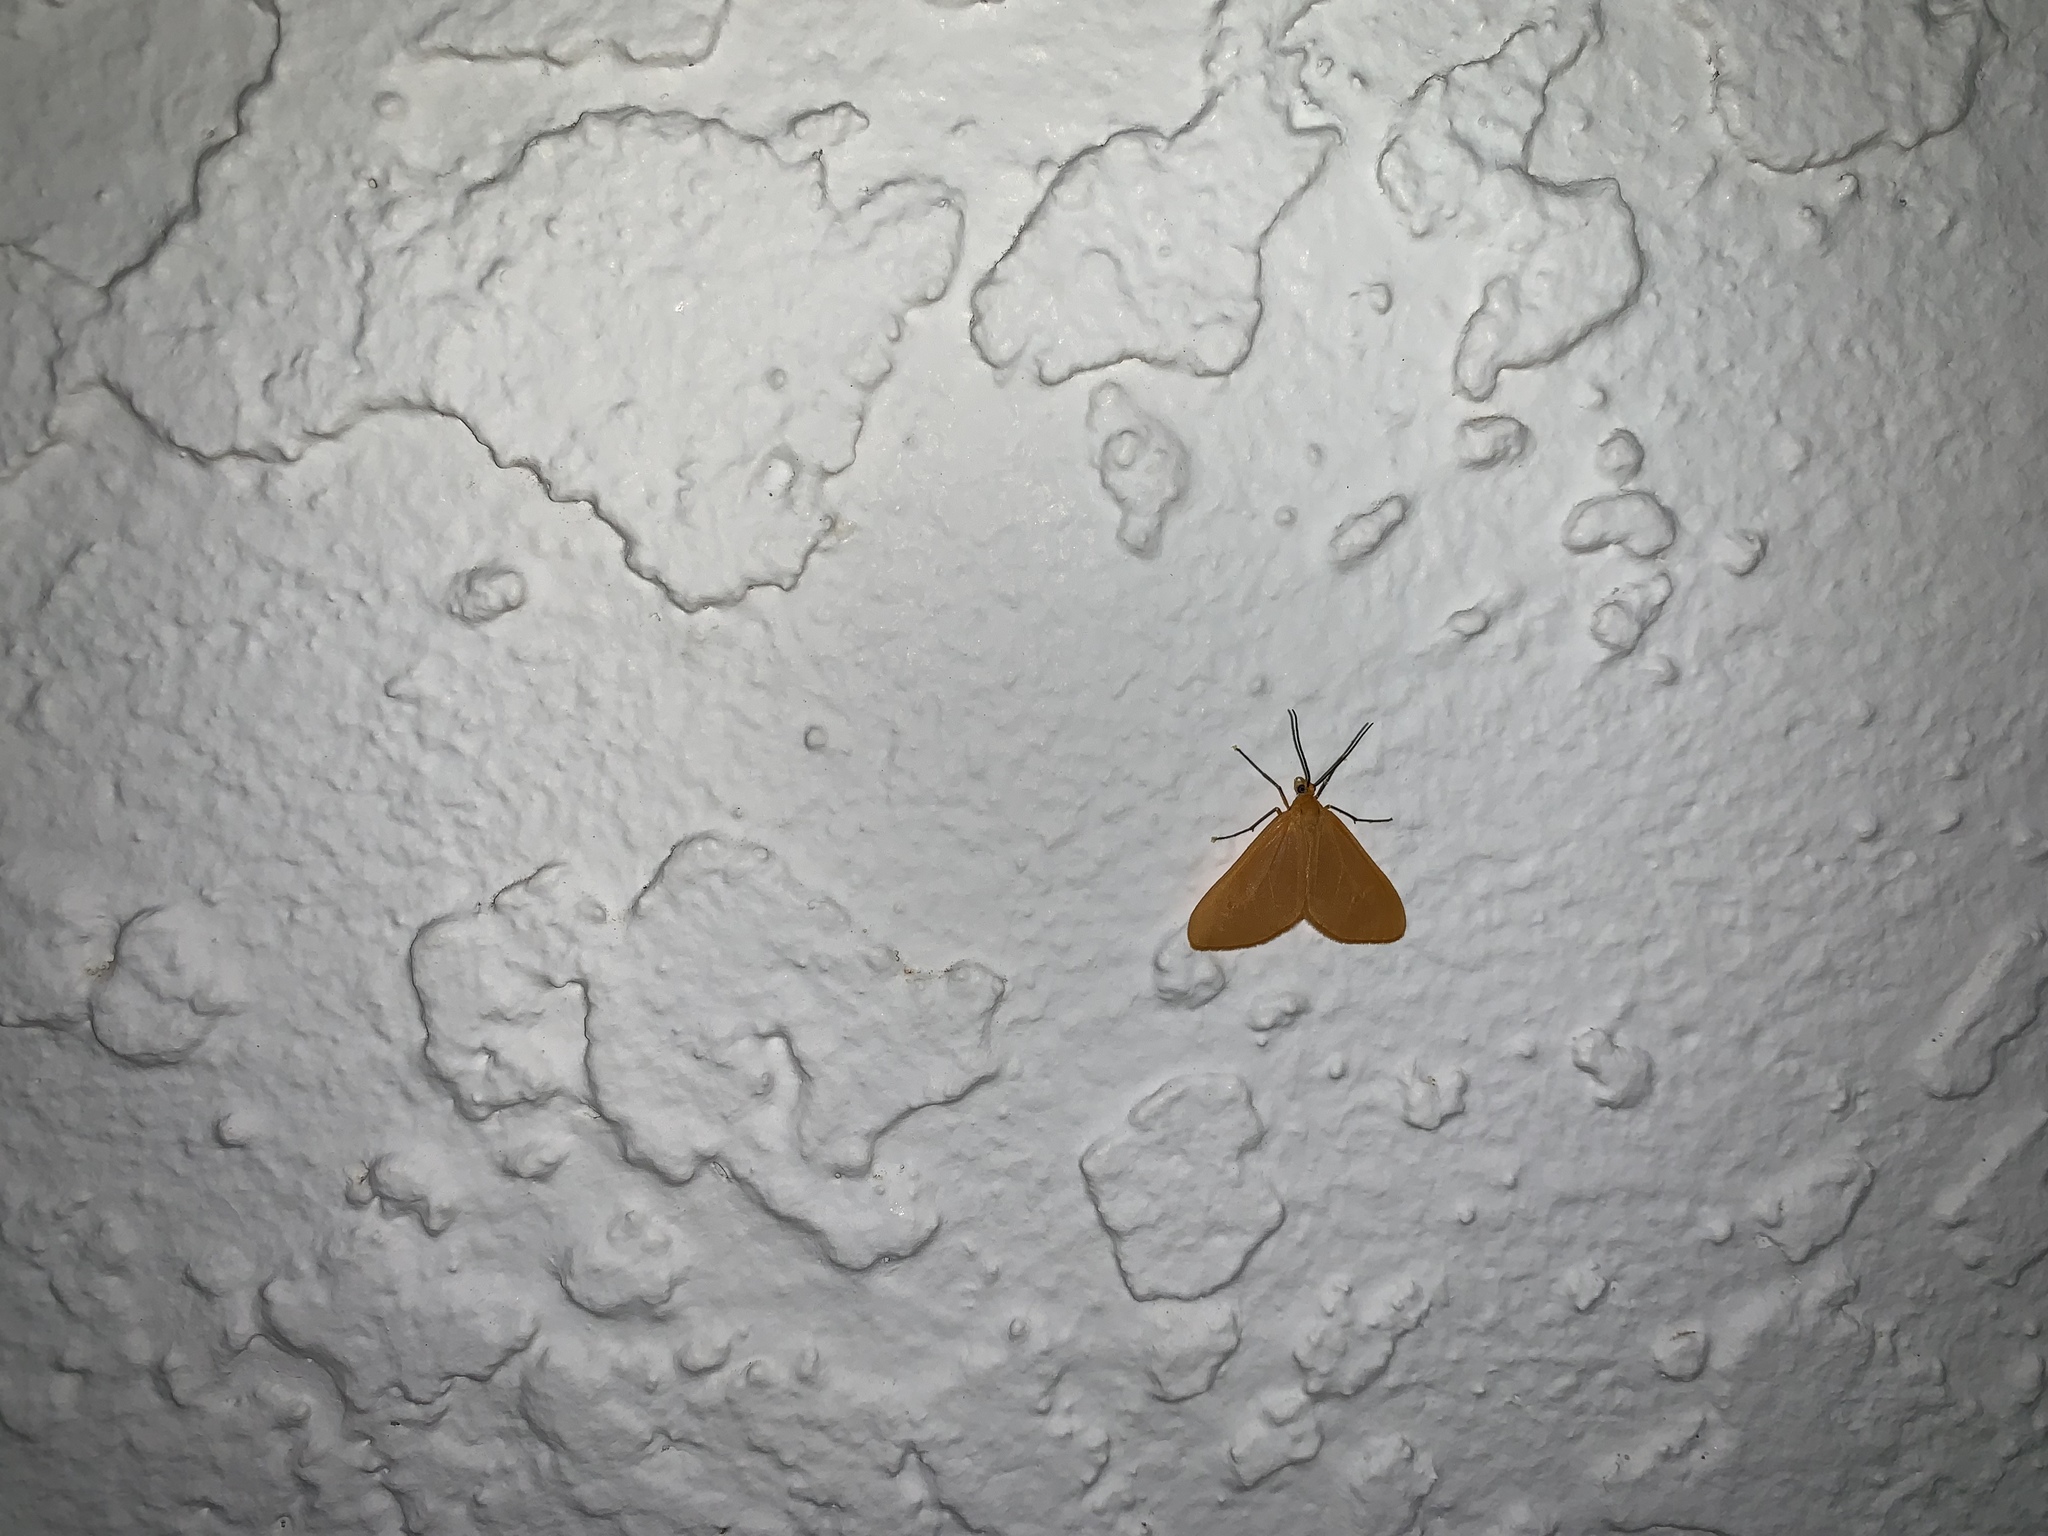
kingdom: Animalia
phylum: Arthropoda
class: Insecta
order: Lepidoptera
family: Geometridae
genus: Eubaphe
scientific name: Eubaphe unicolor
